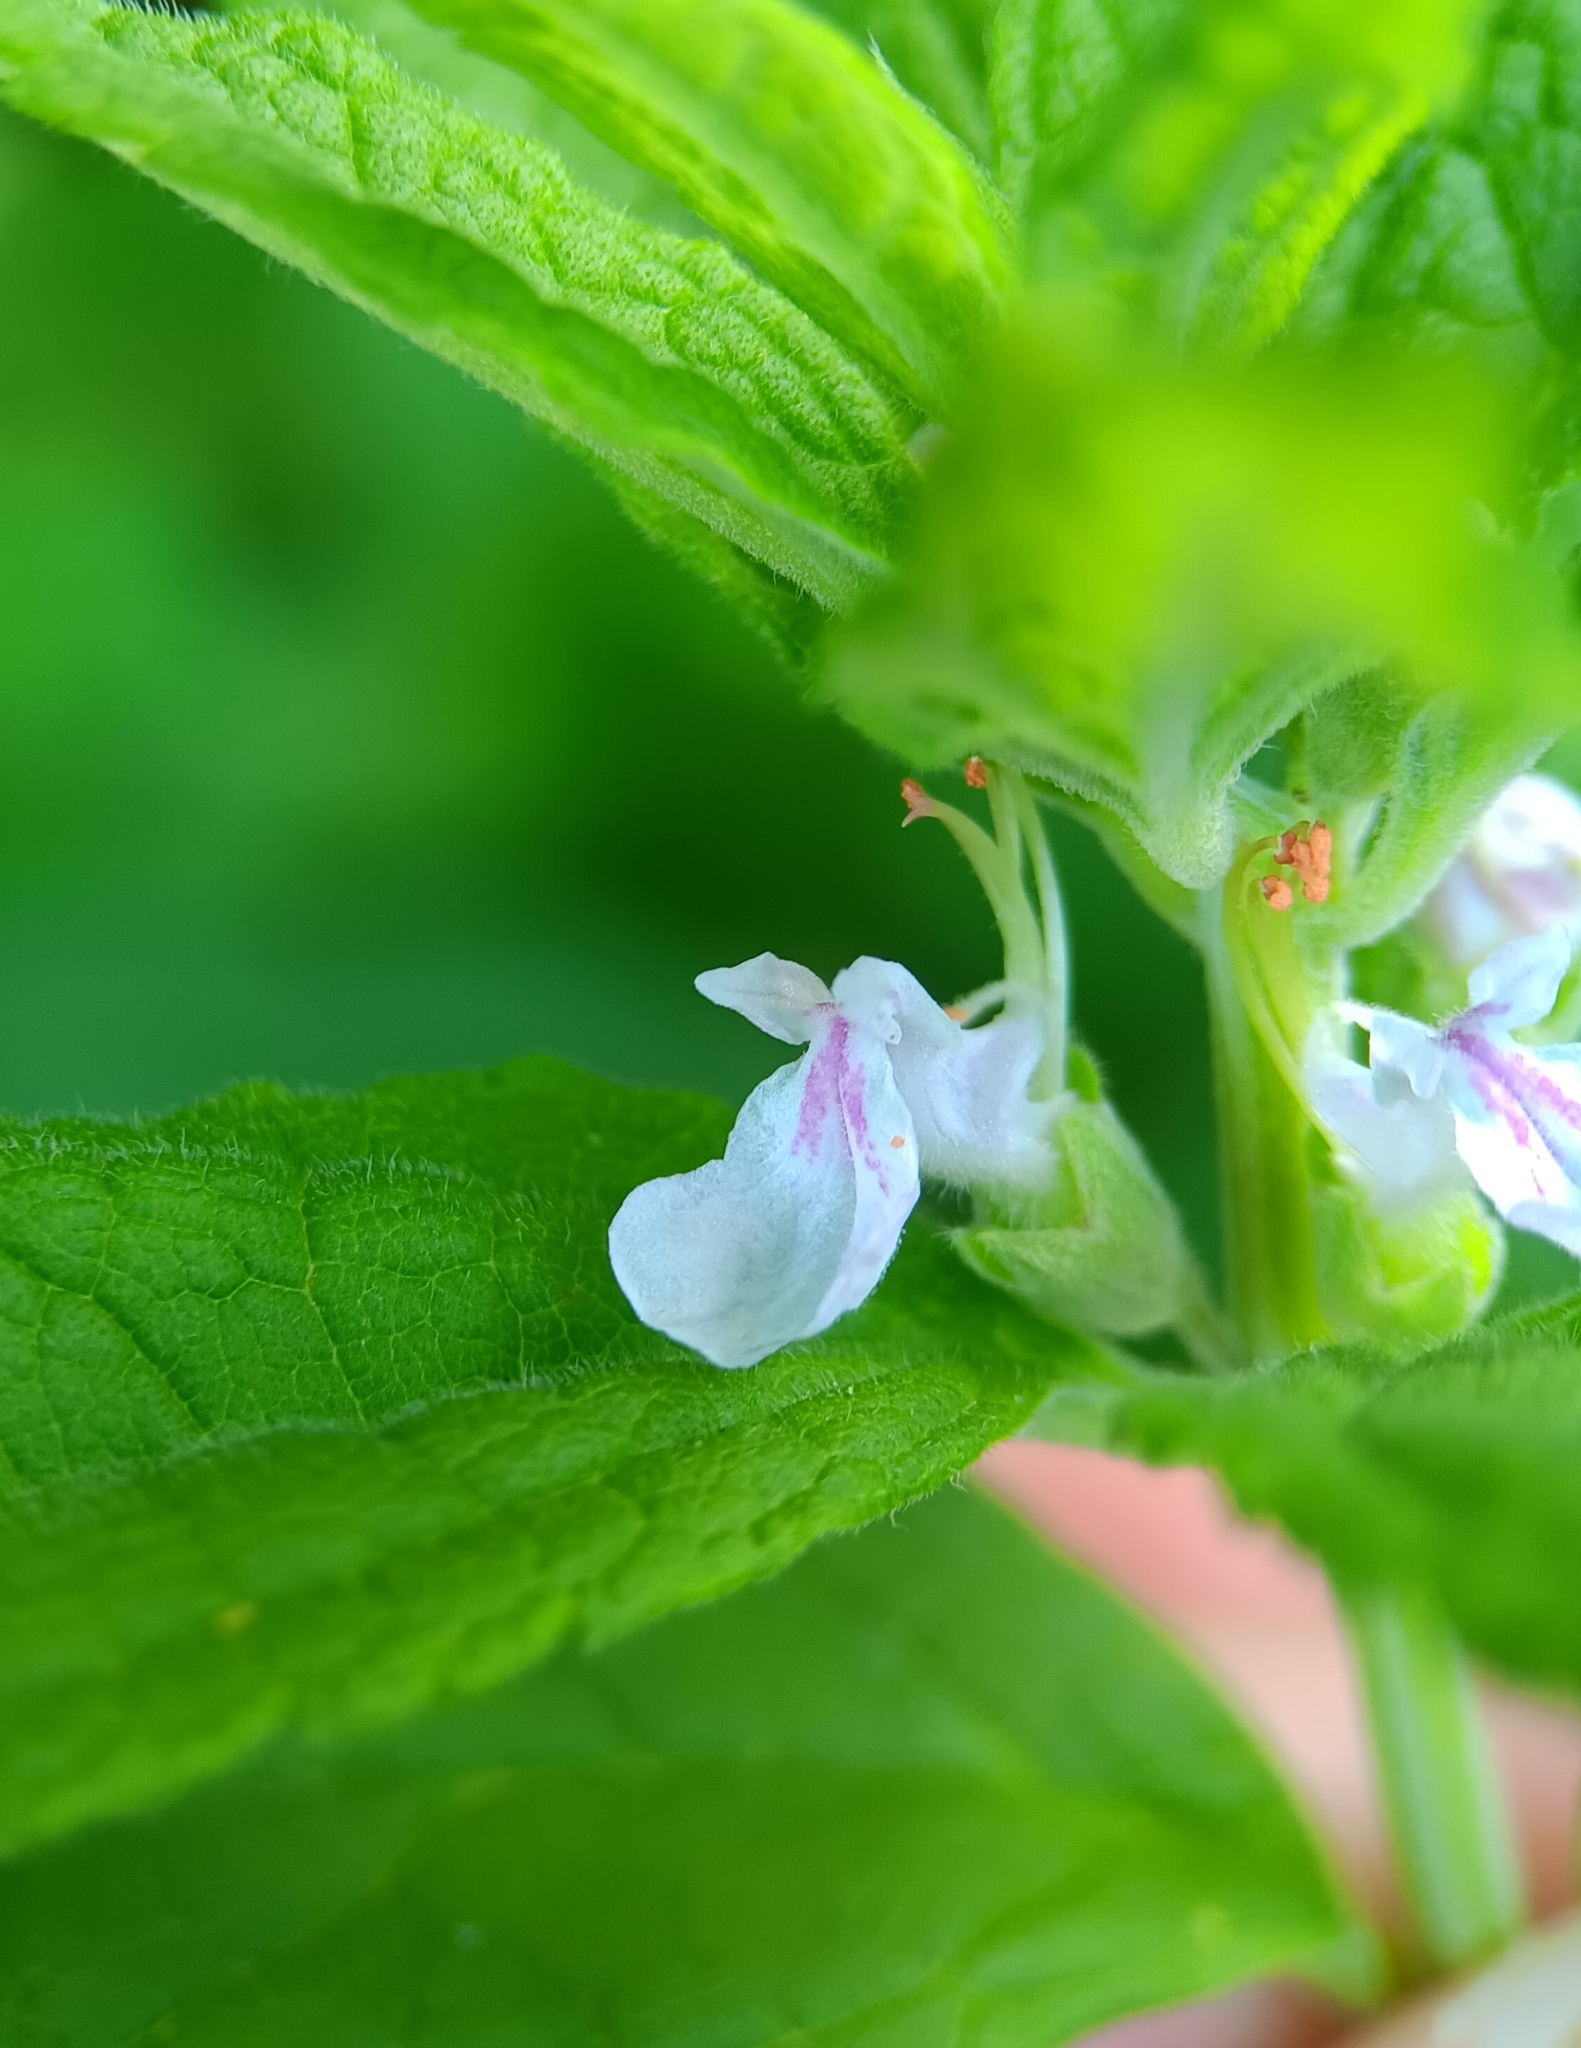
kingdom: Plantae
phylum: Tracheophyta
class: Magnoliopsida
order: Lamiales
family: Lamiaceae
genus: Teucrium
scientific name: Teucrium canadense
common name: American germander
